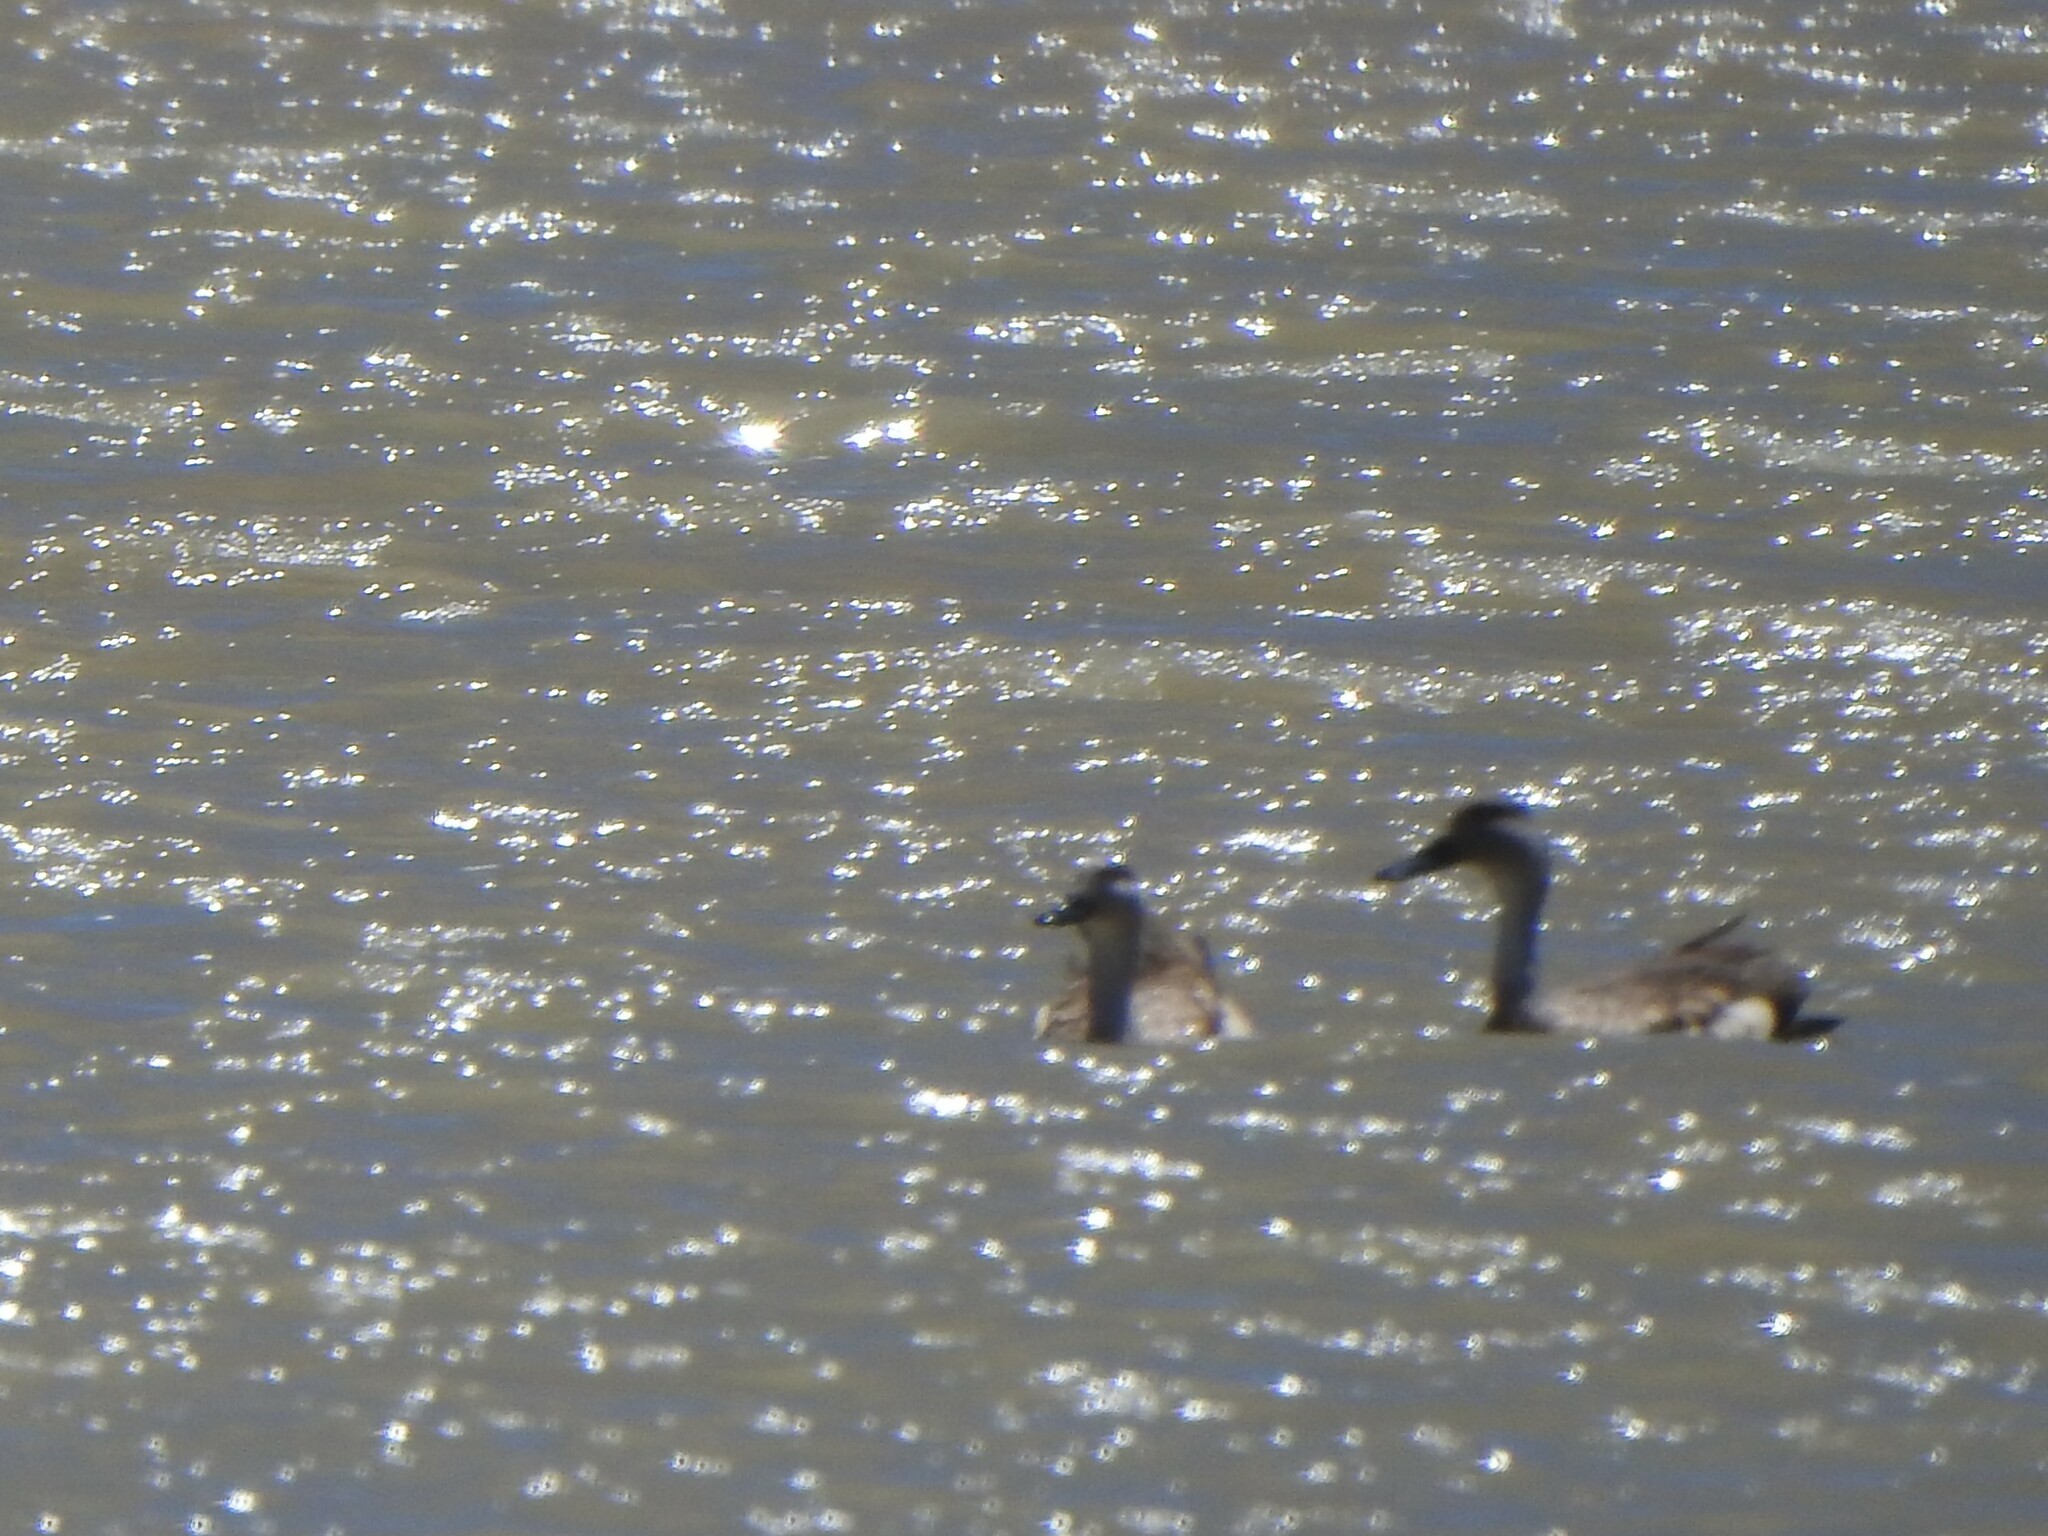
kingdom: Animalia
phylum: Chordata
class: Aves
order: Anseriformes
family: Anatidae
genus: Lophonetta
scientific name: Lophonetta specularioides
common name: Crested duck
